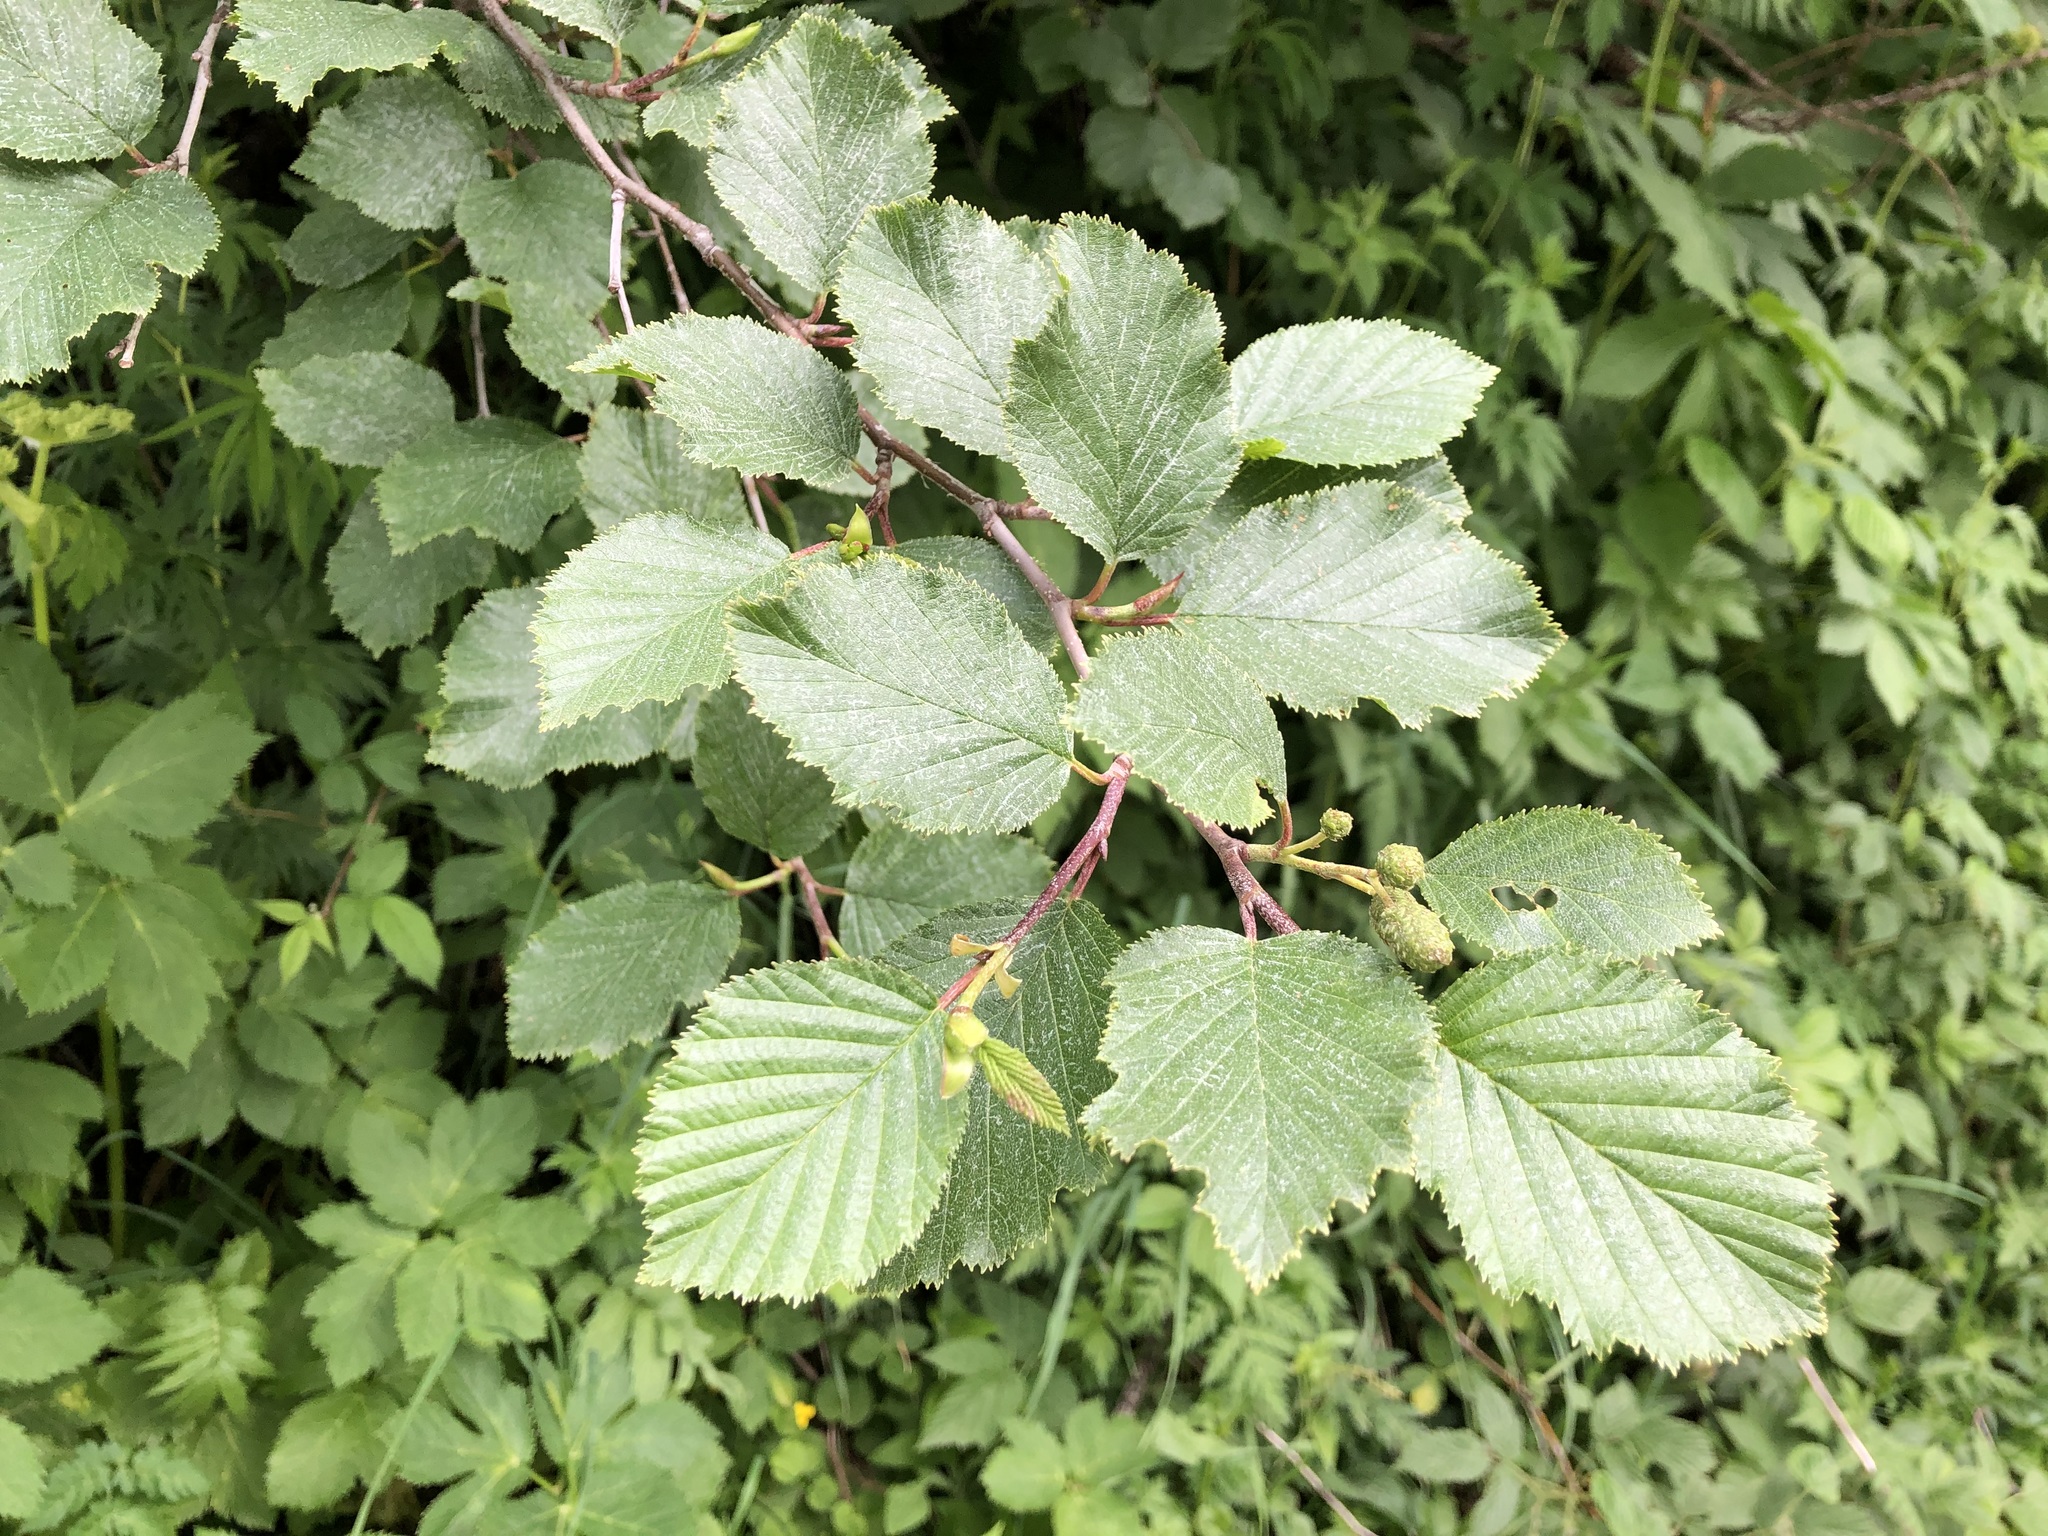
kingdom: Plantae
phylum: Tracheophyta
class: Magnoliopsida
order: Fagales
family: Betulaceae
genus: Alnus
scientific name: Alnus alnobetula
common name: Green alder
